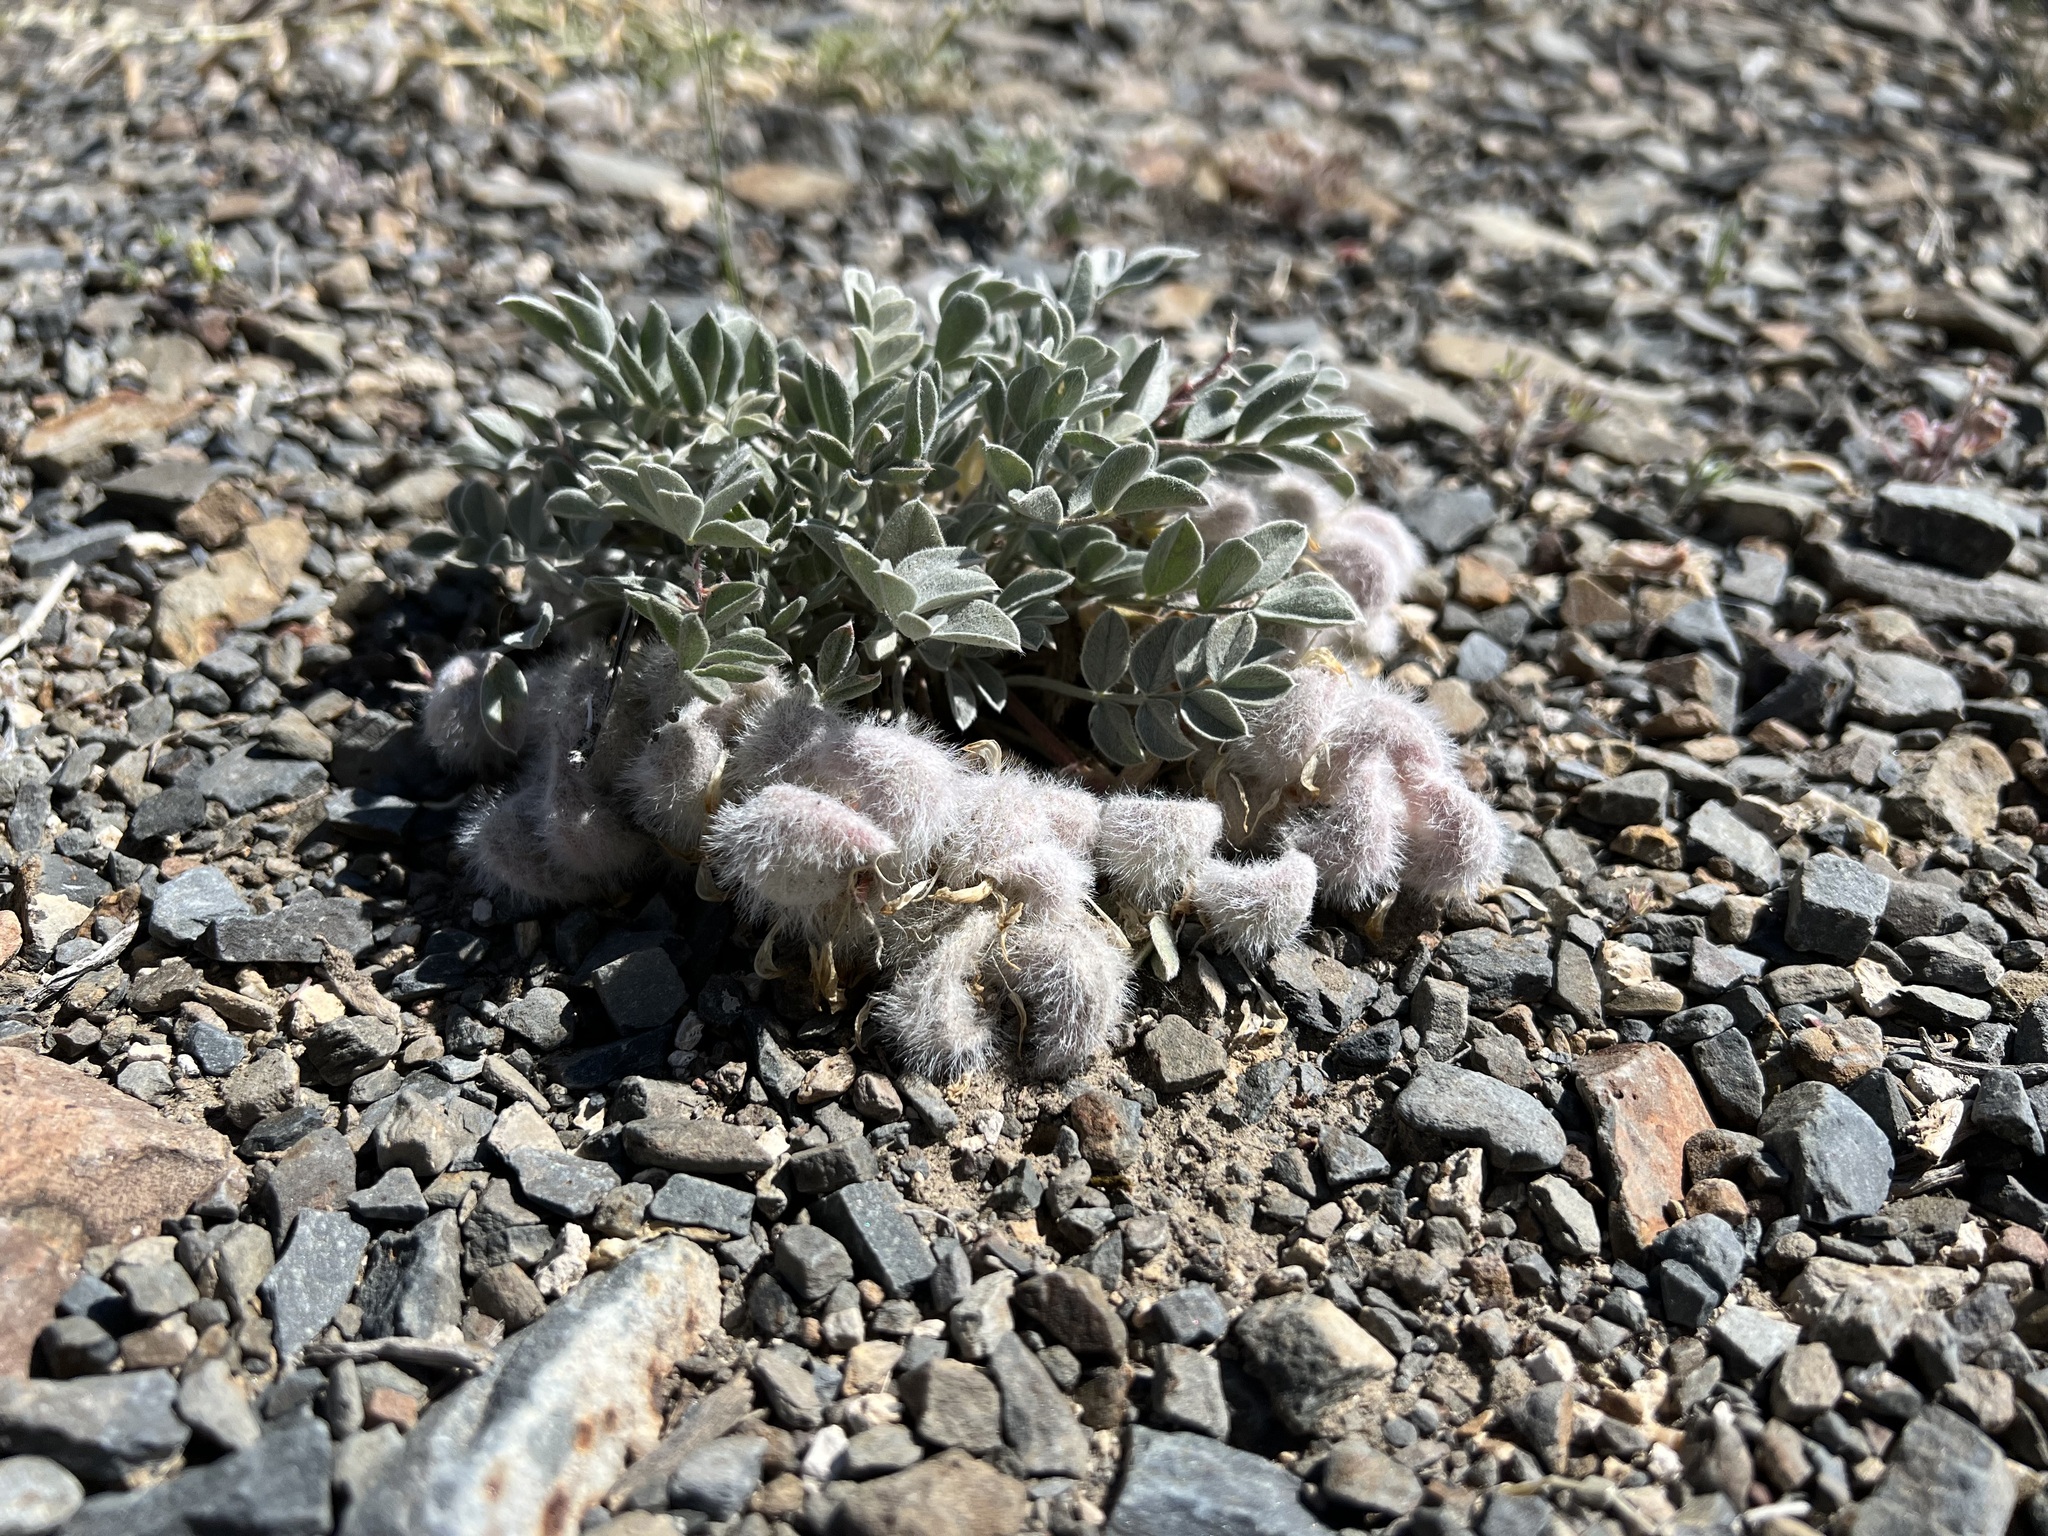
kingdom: Plantae
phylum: Tracheophyta
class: Magnoliopsida
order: Fabales
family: Fabaceae
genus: Astragalus
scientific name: Astragalus newberryi
